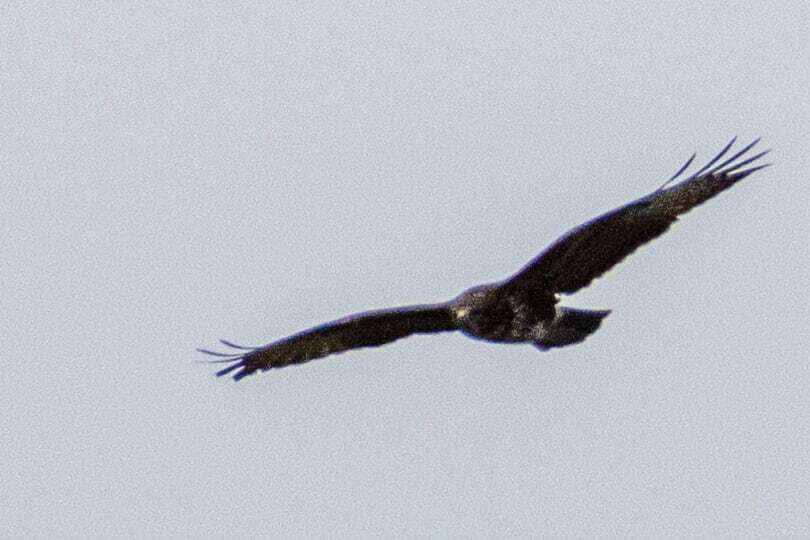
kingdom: Animalia
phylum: Chordata
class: Aves
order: Accipitriformes
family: Accipitridae
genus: Buteo
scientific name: Buteo buteo
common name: Common buzzard
